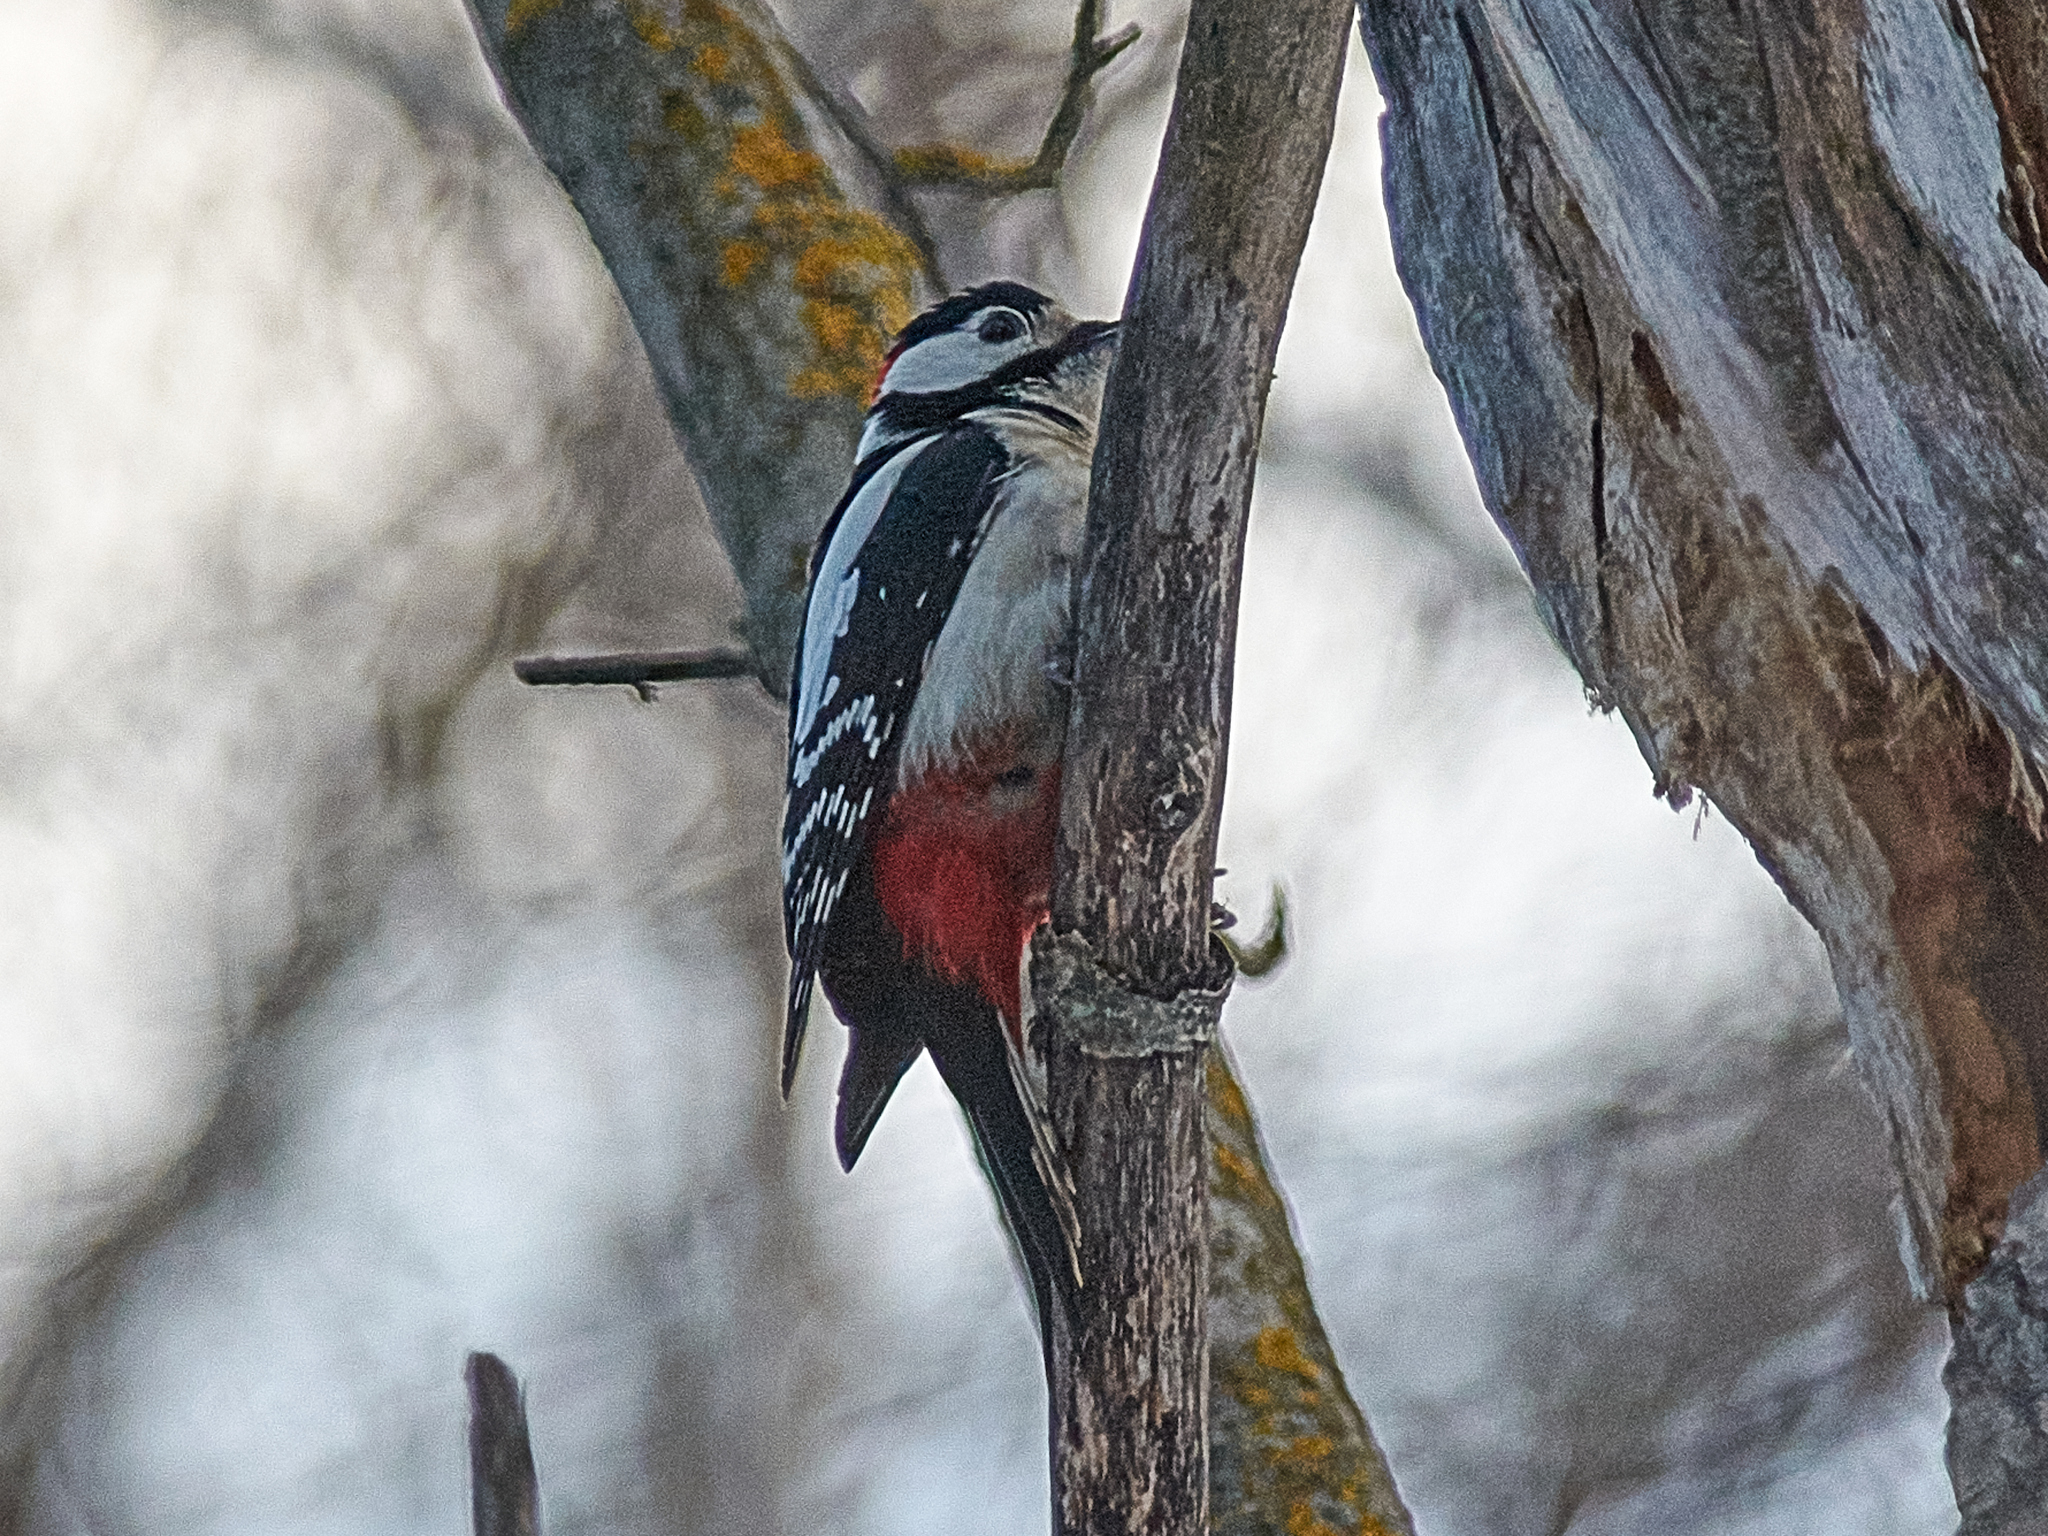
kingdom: Animalia
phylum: Chordata
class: Aves
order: Piciformes
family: Picidae
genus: Dendrocopos
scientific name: Dendrocopos major
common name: Great spotted woodpecker
